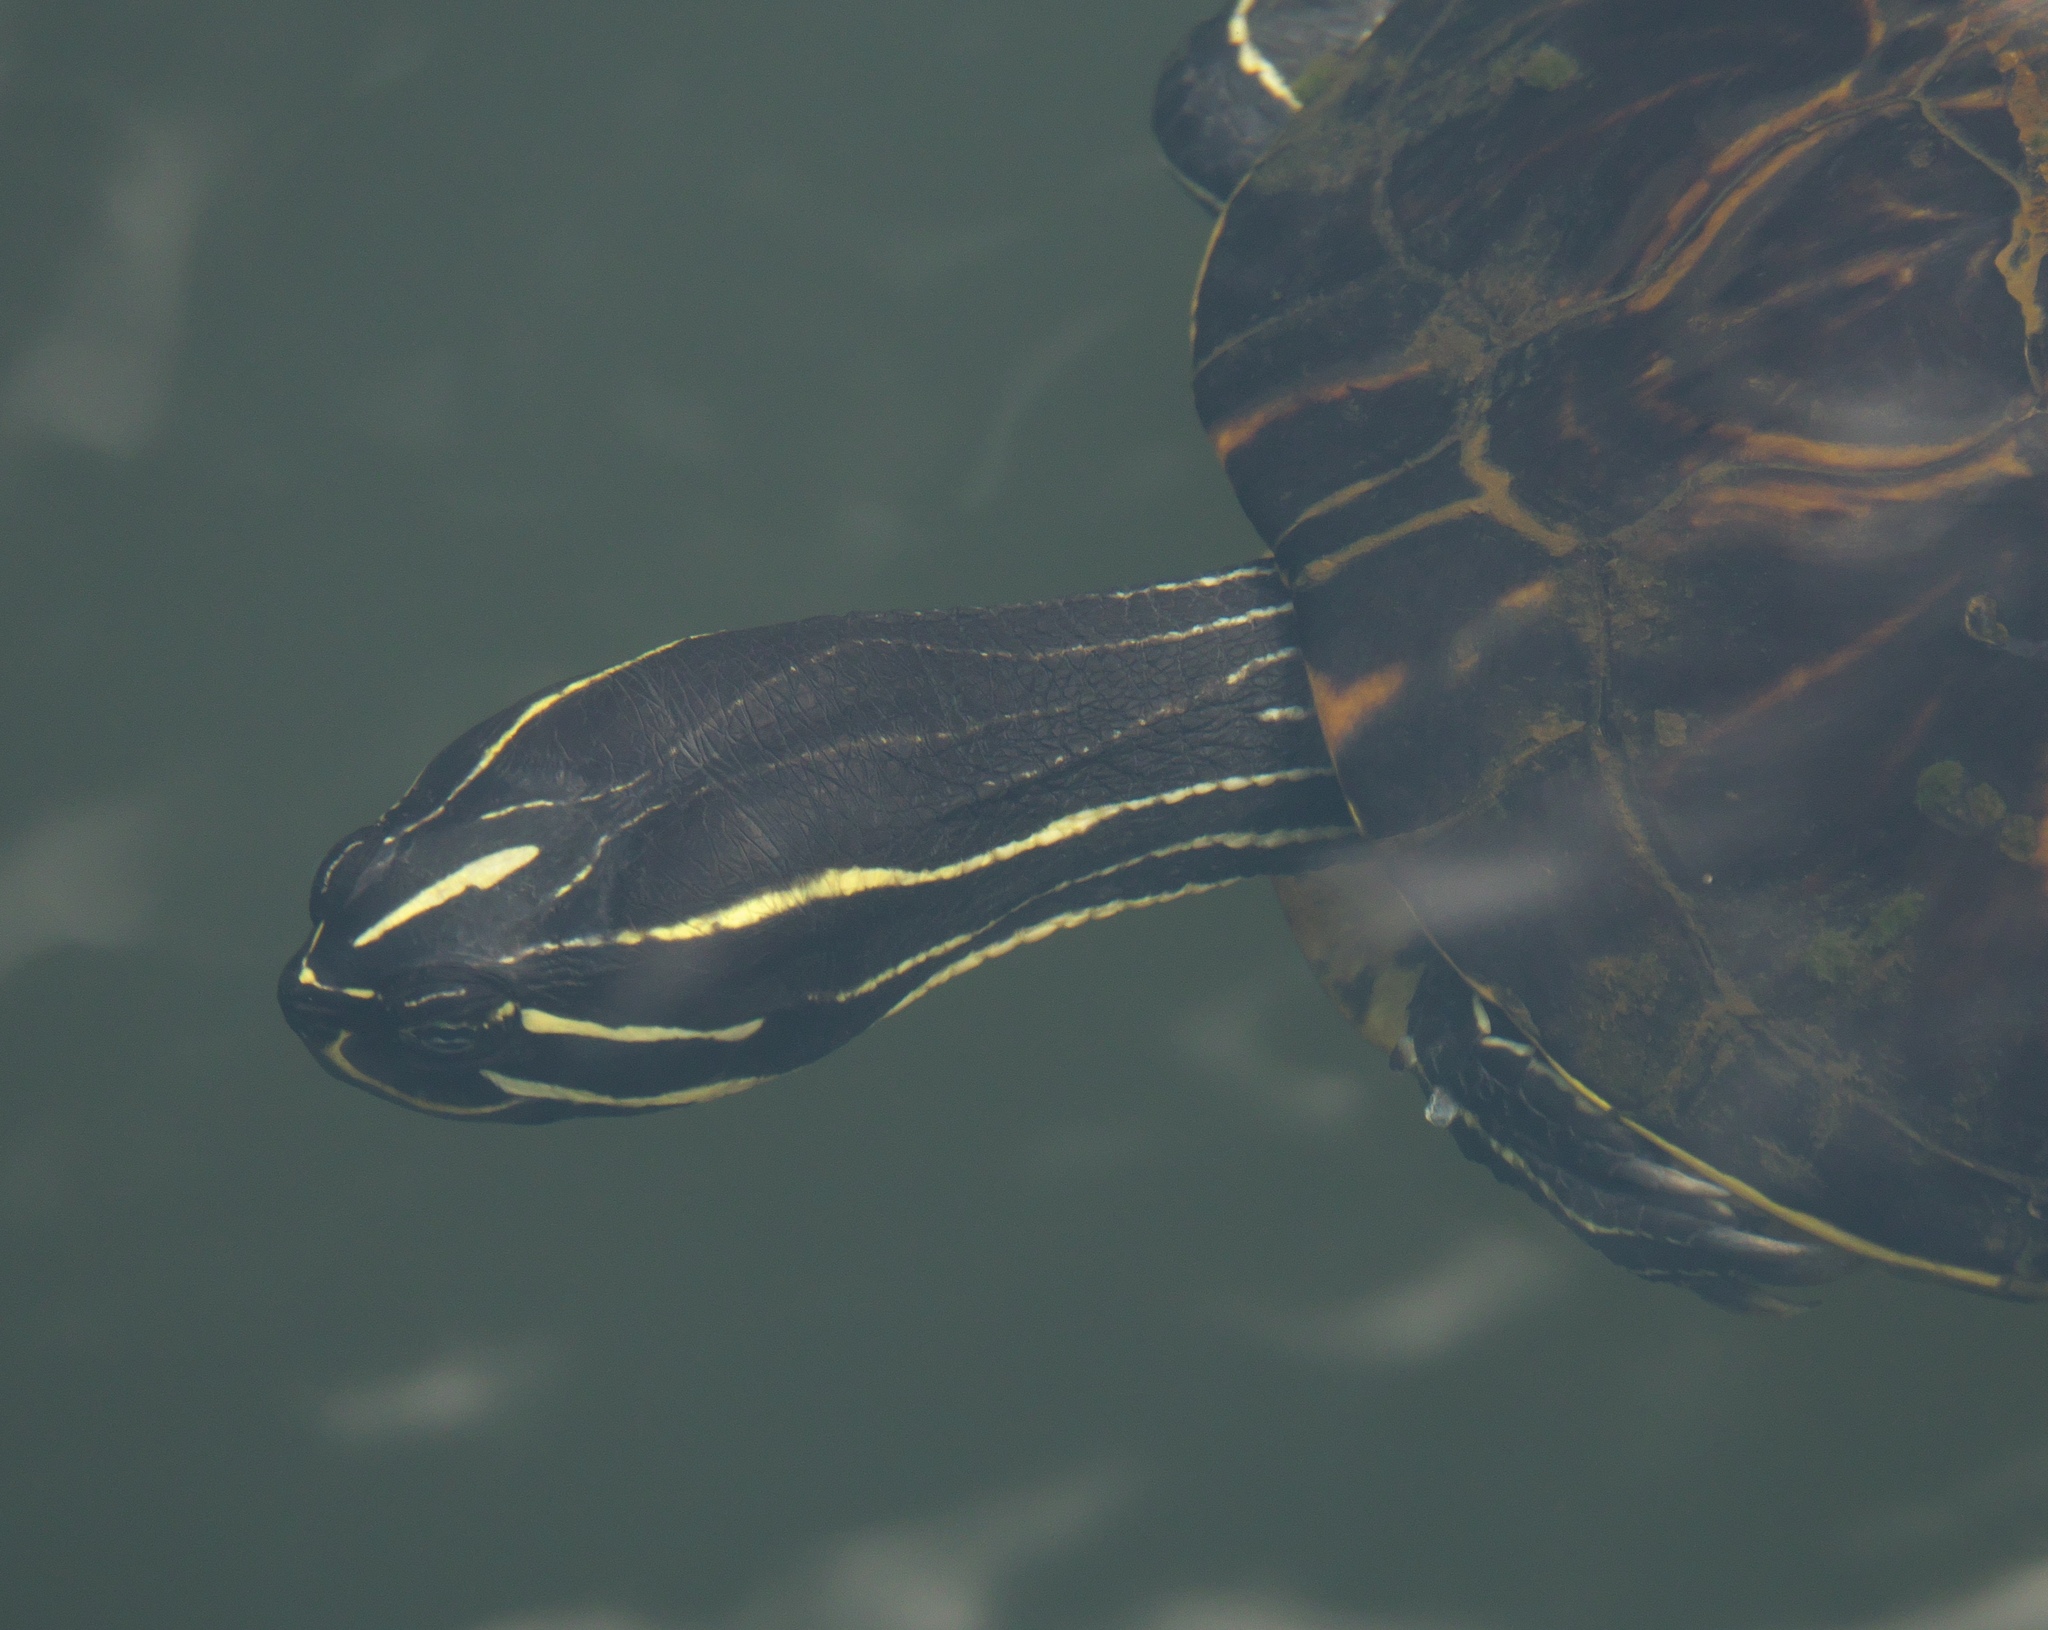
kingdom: Animalia
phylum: Chordata
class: Testudines
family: Emydidae
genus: Pseudemys
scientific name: Pseudemys nelsoni
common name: Florida red-bellied turtle
